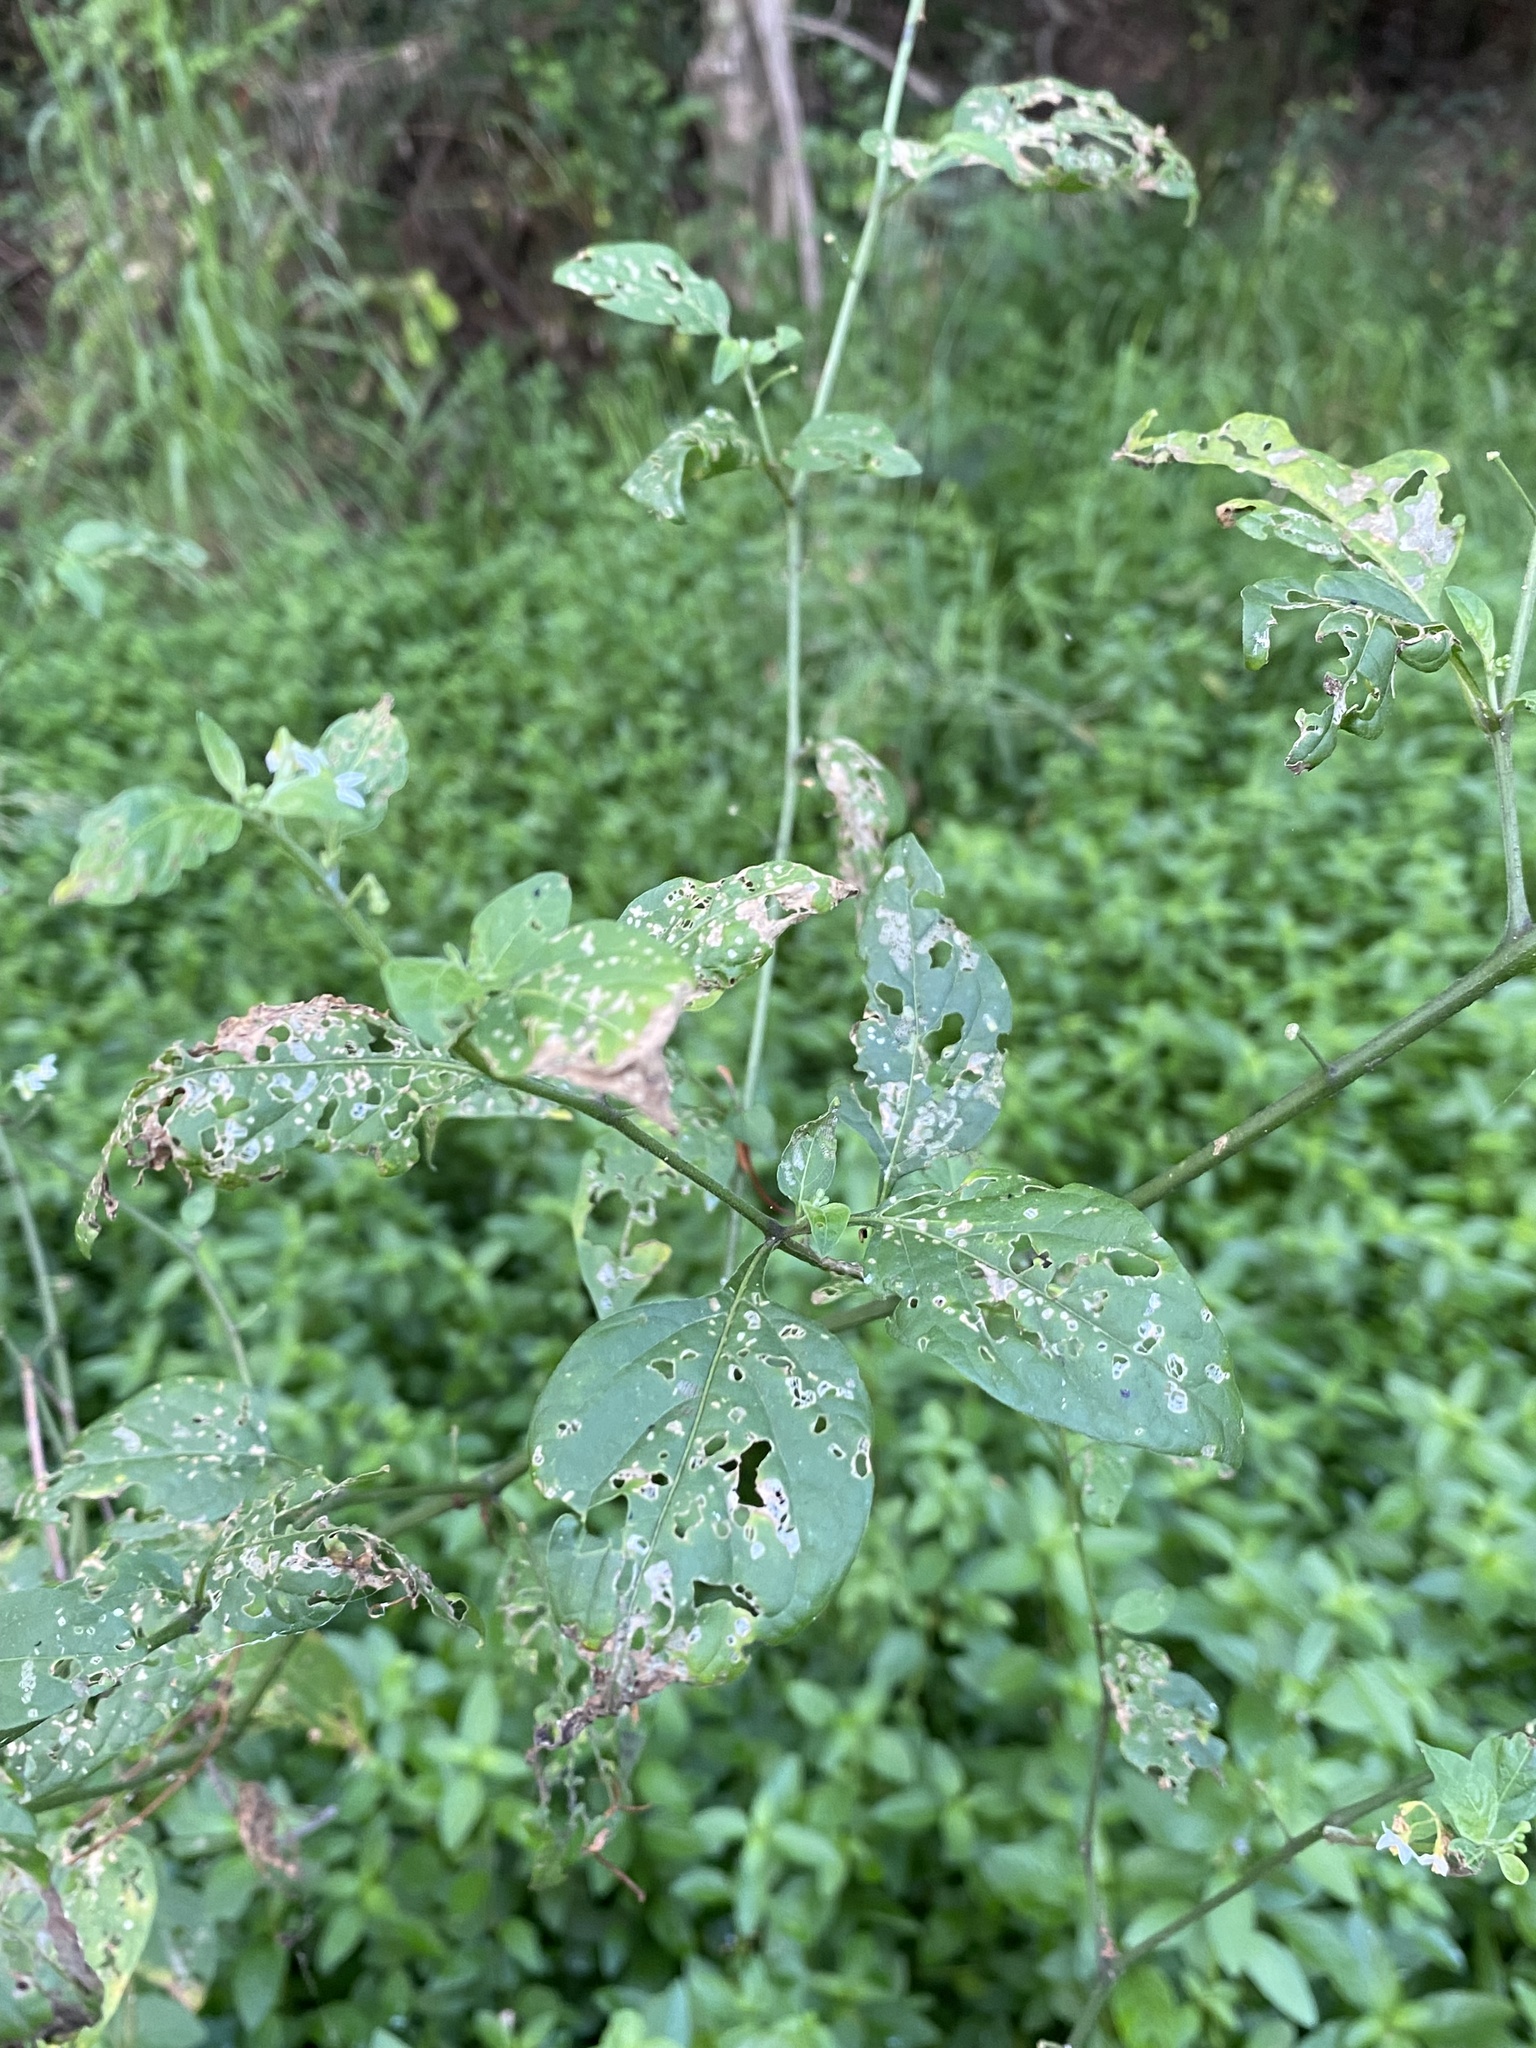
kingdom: Plantae
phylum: Tracheophyta
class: Magnoliopsida
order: Solanales
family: Solanaceae
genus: Solanum
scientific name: Solanum americanum
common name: American black nightshade
